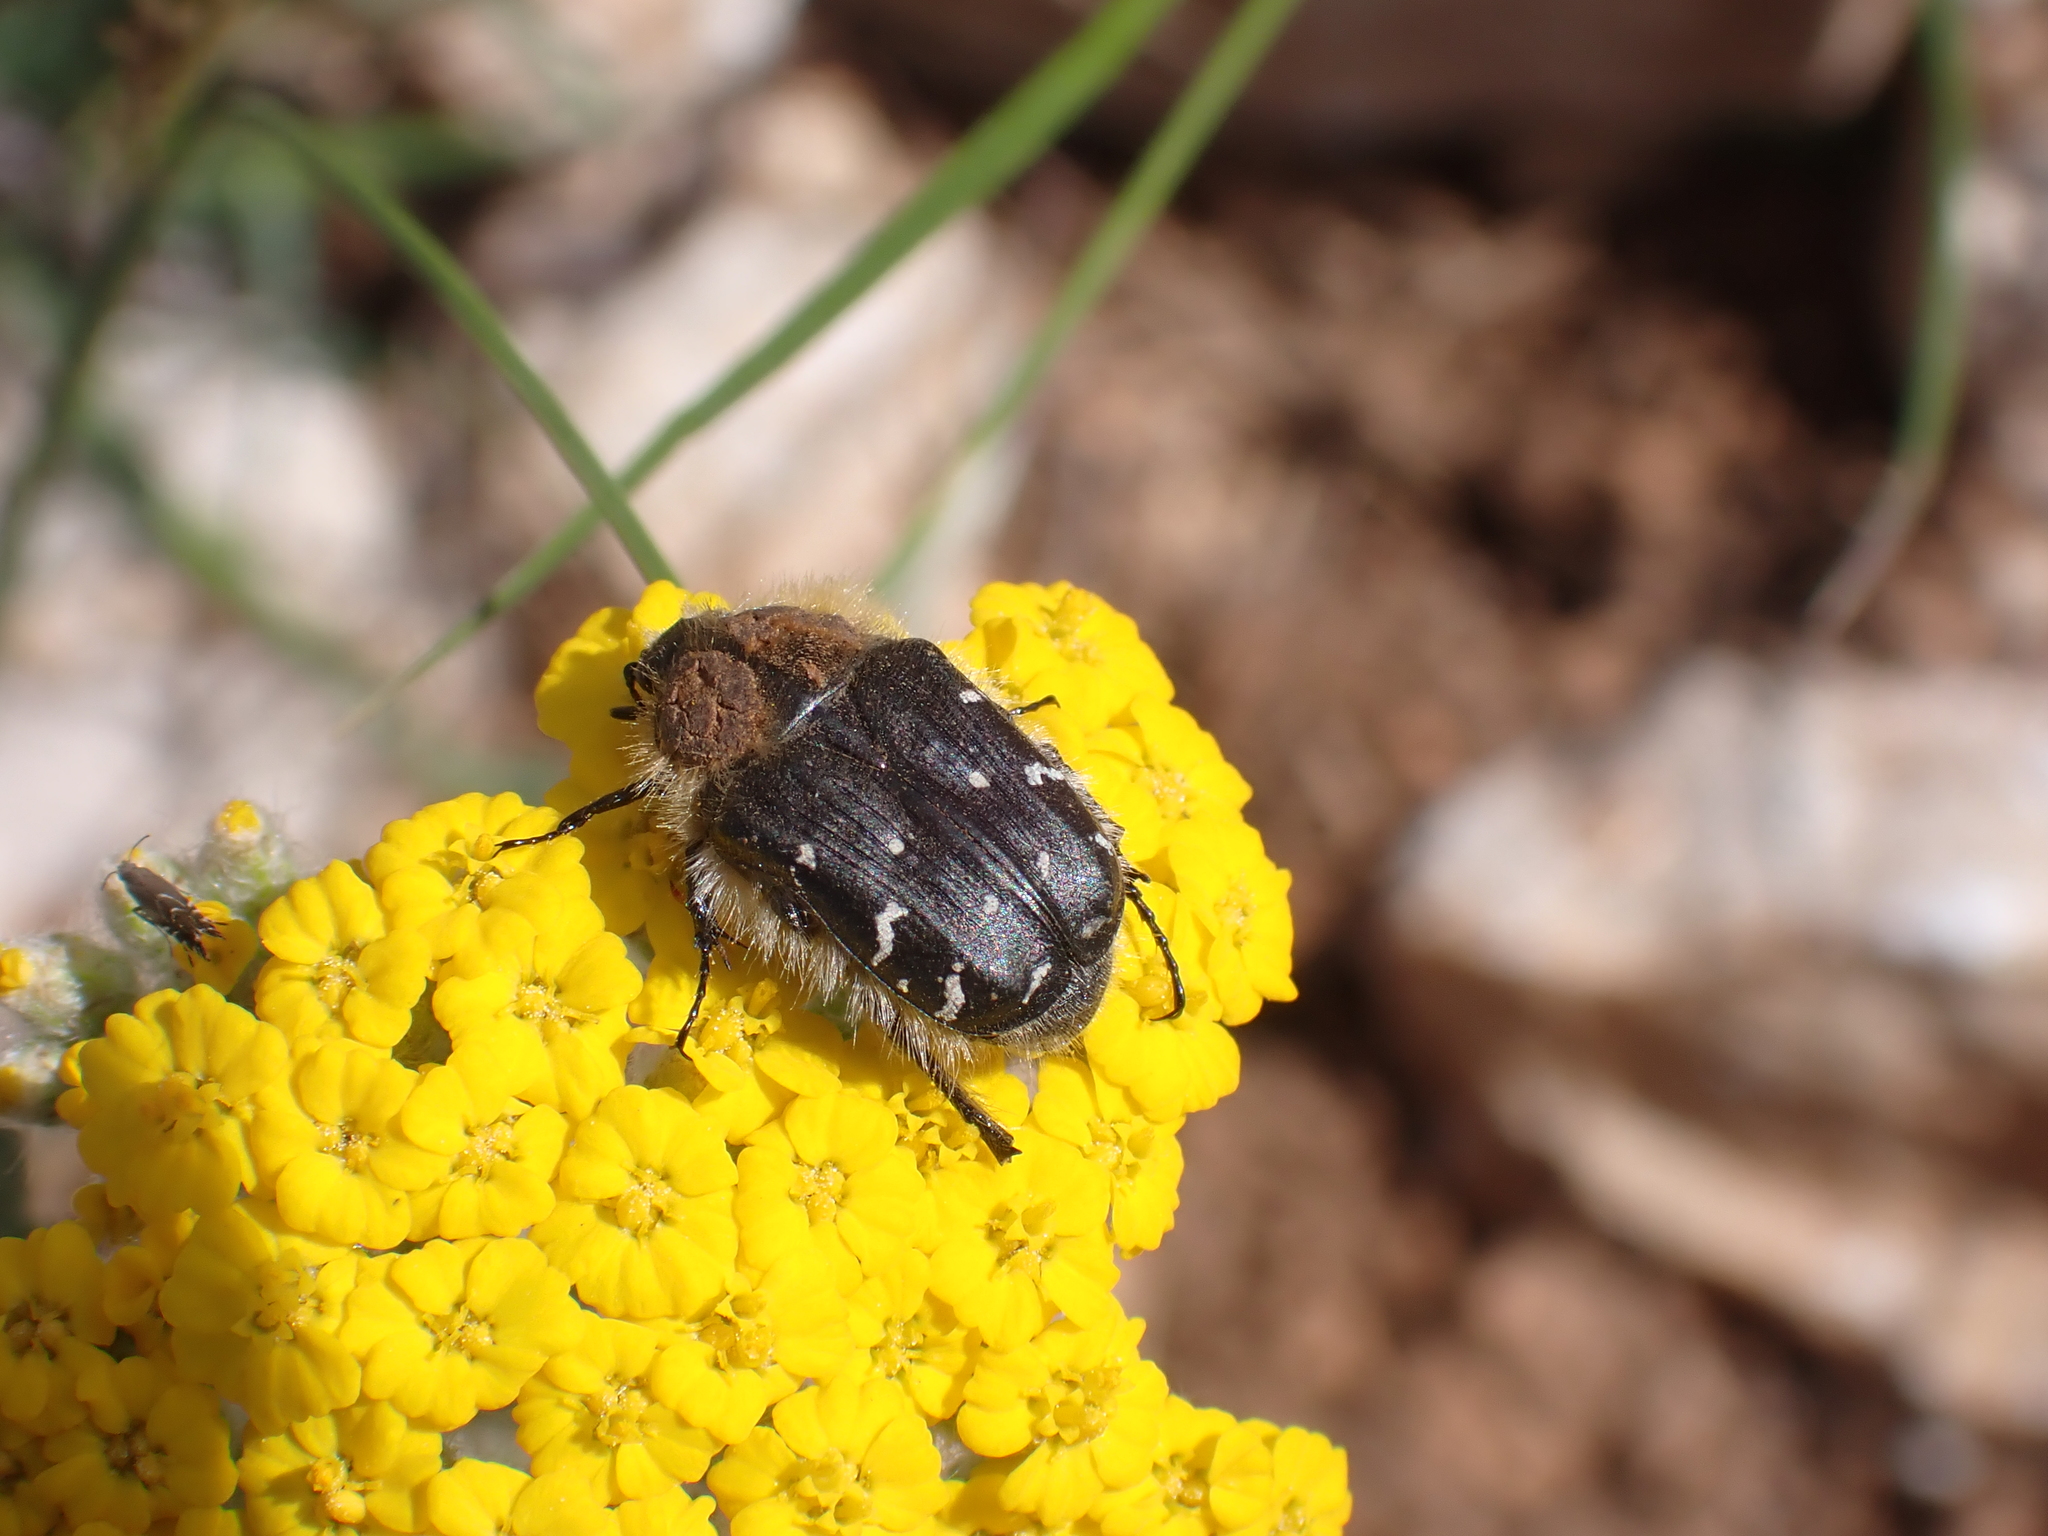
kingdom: Animalia
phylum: Arthropoda
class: Insecta
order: Coleoptera
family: Scarabaeidae
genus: Tropinota
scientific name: Tropinota hirta
